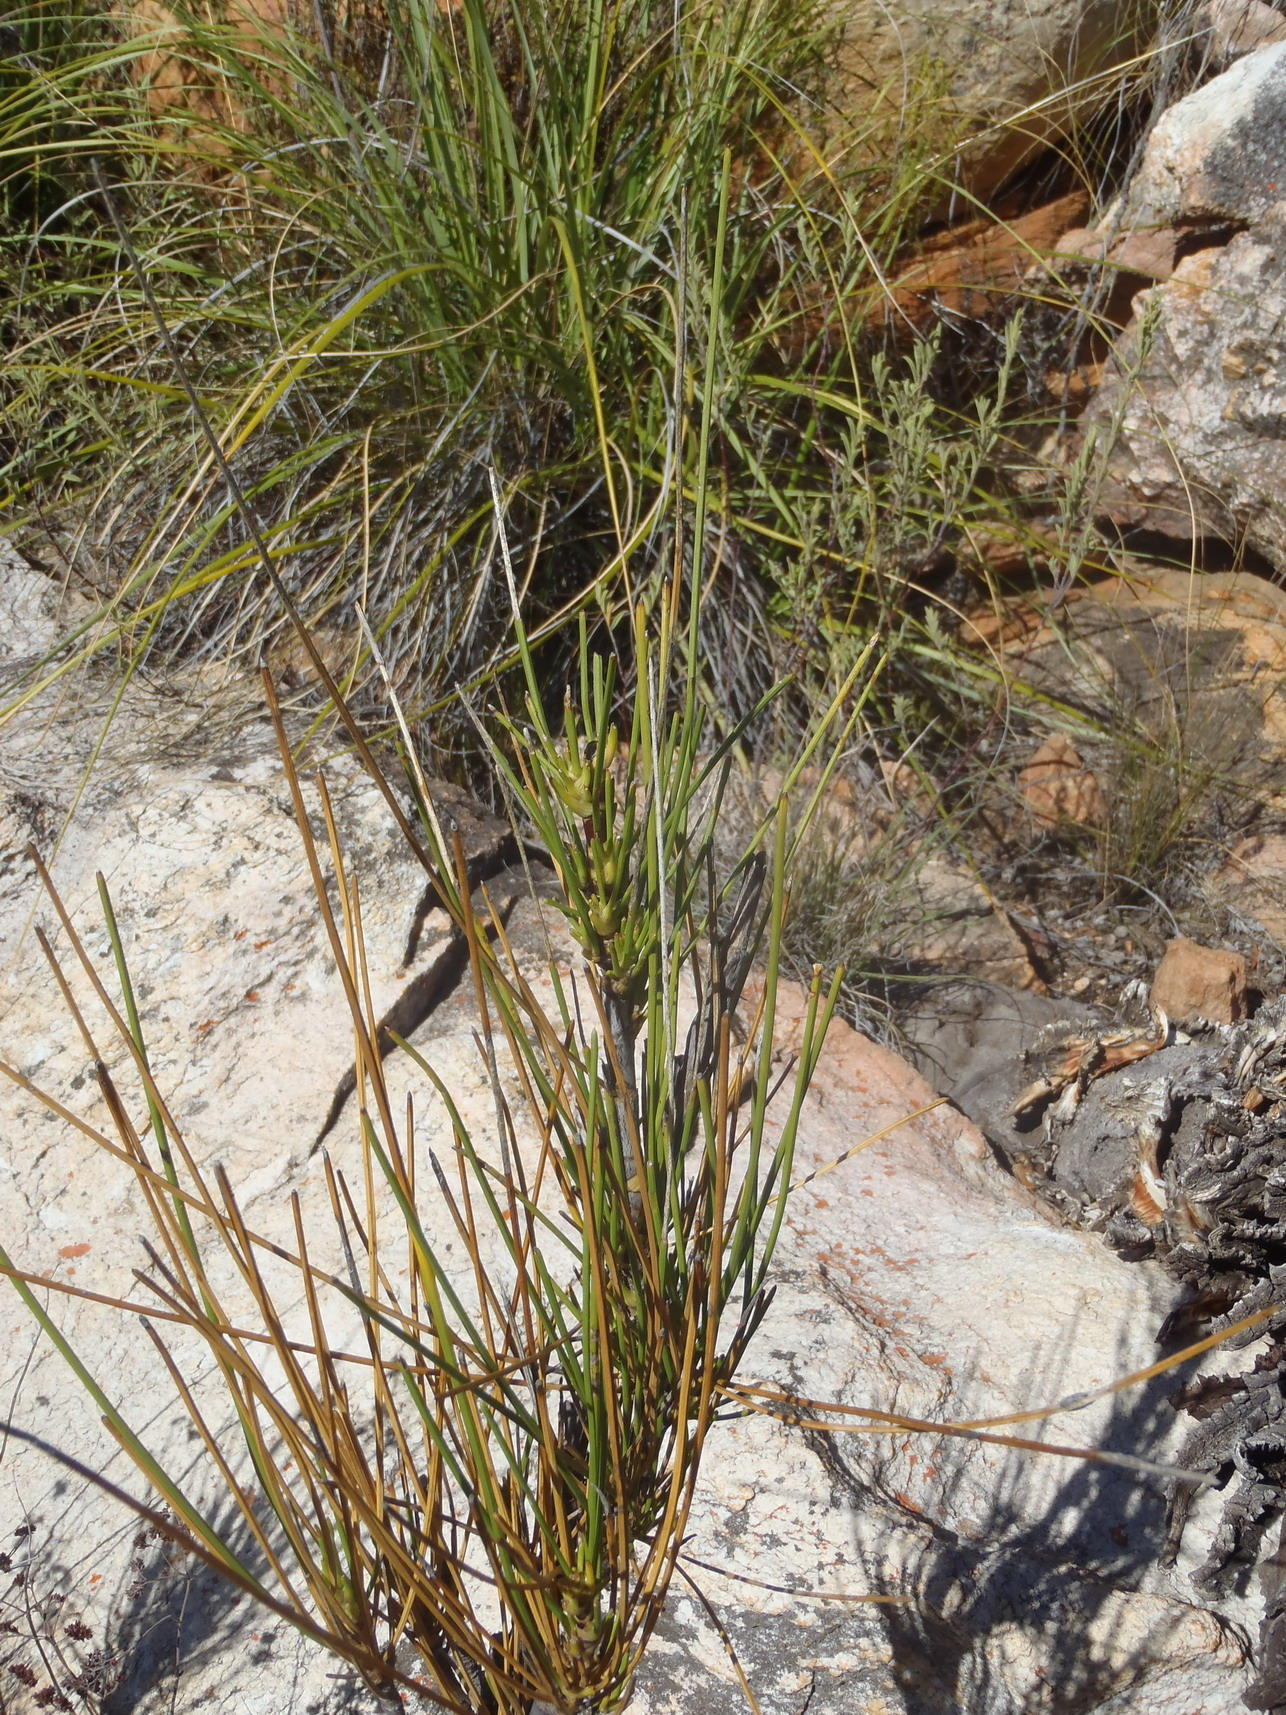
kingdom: Plantae
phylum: Tracheophyta
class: Magnoliopsida
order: Apiales
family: Apiaceae
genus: Anginon
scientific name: Anginon difforme
